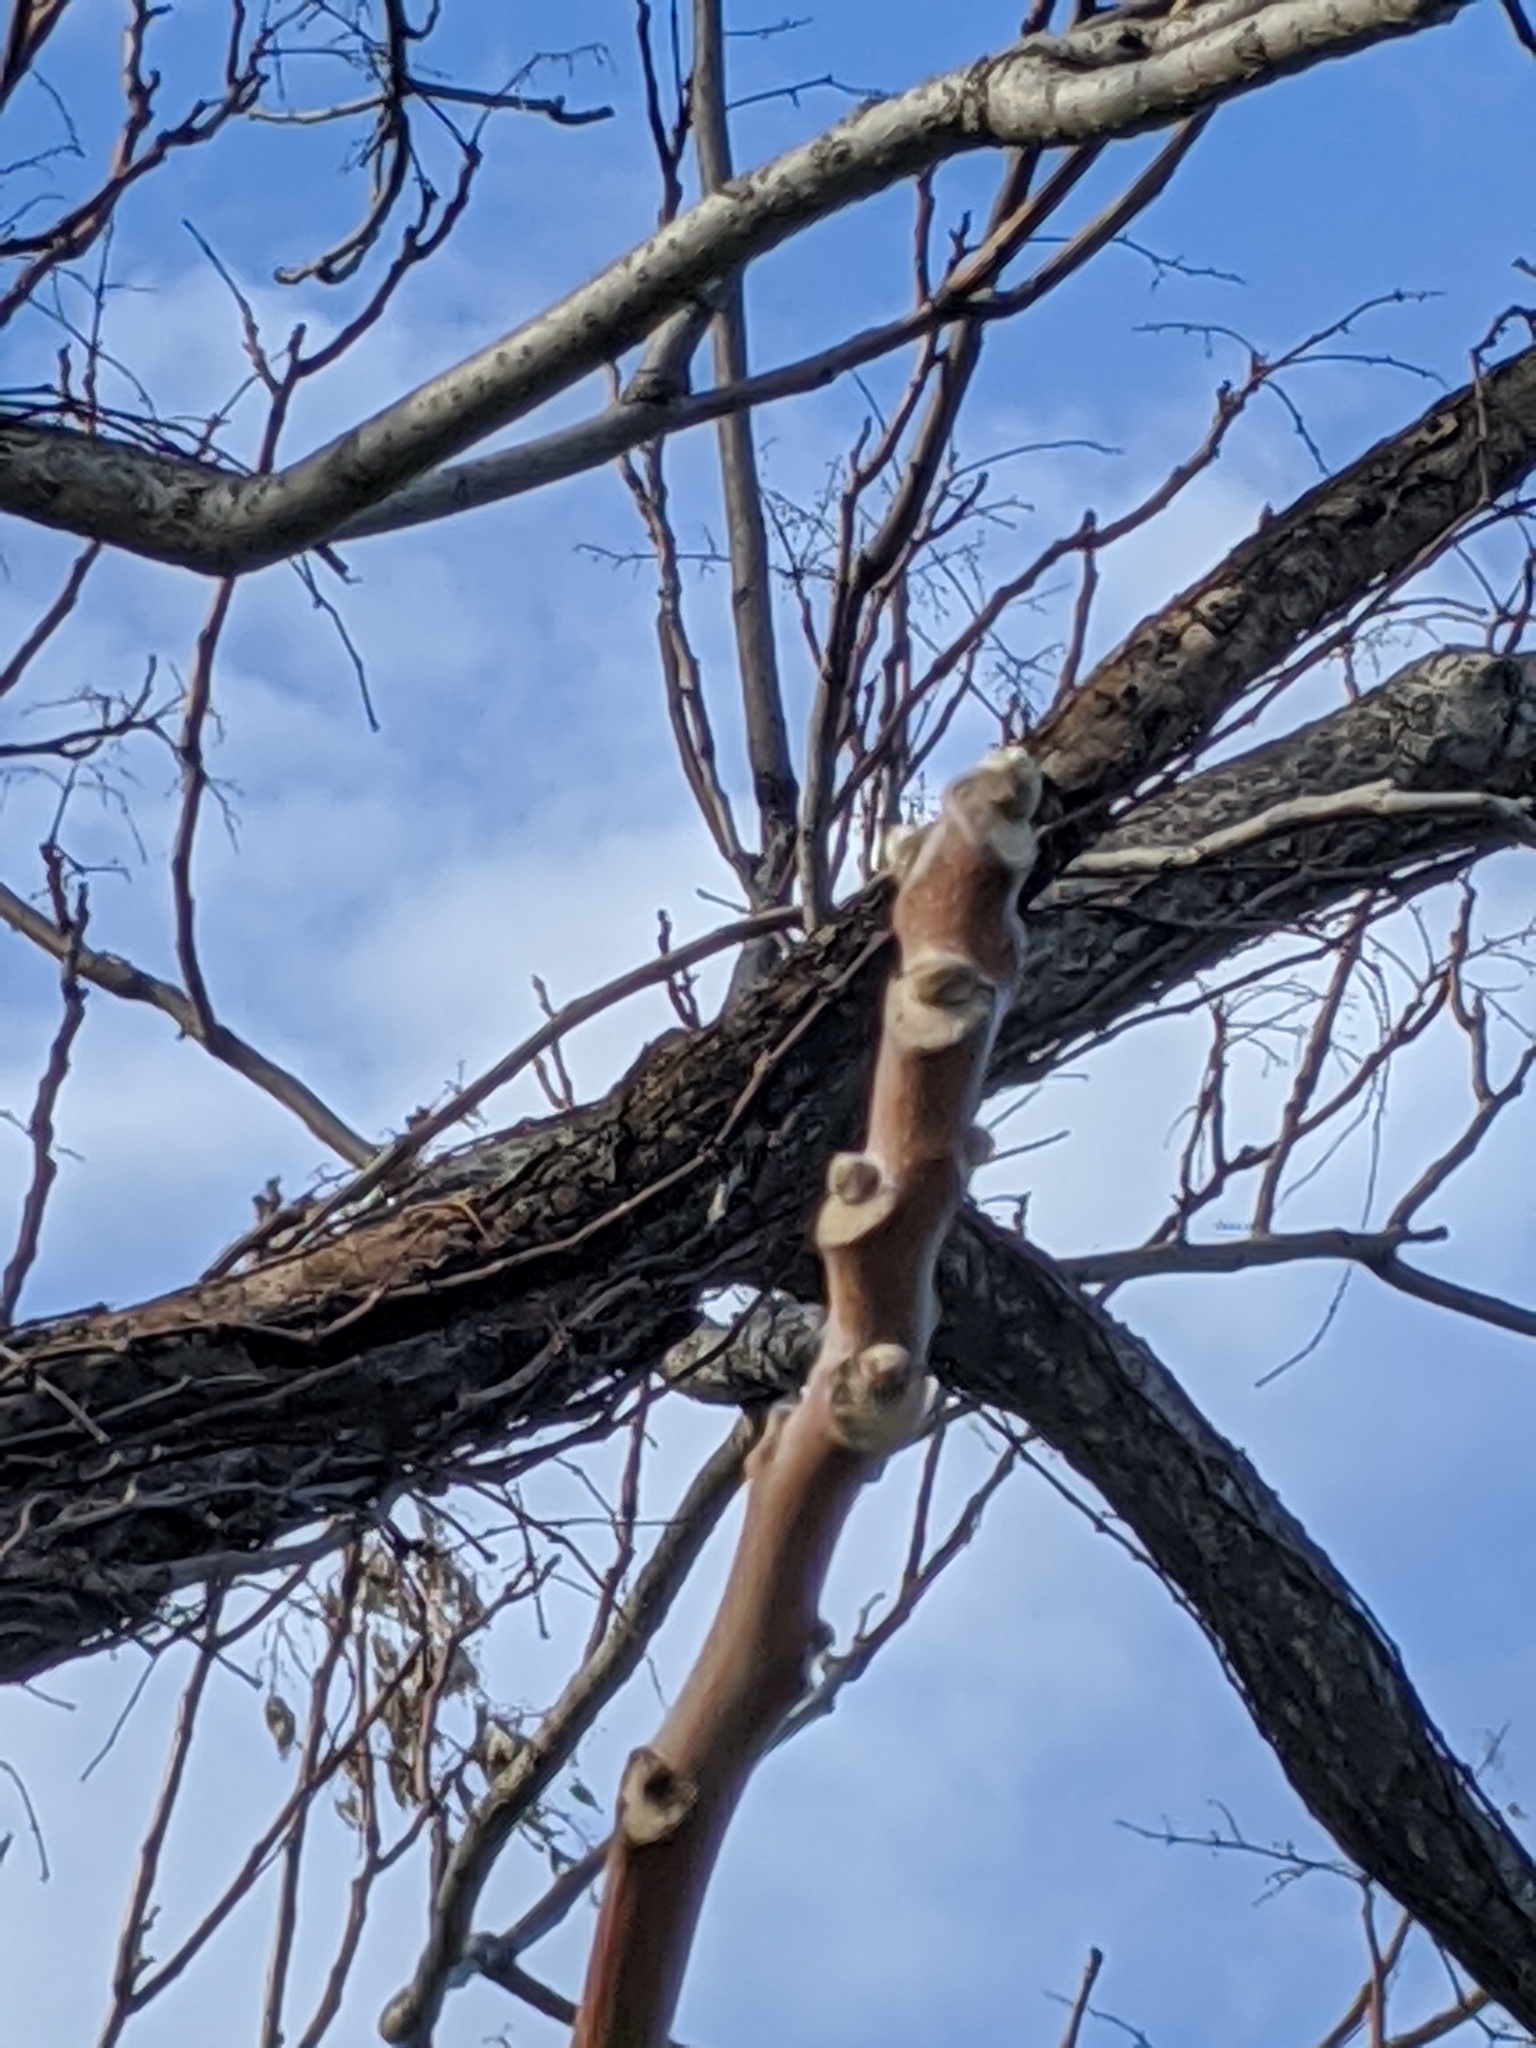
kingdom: Plantae
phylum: Tracheophyta
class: Magnoliopsida
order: Sapindales
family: Simaroubaceae
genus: Ailanthus
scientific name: Ailanthus altissima
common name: Tree-of-heaven
